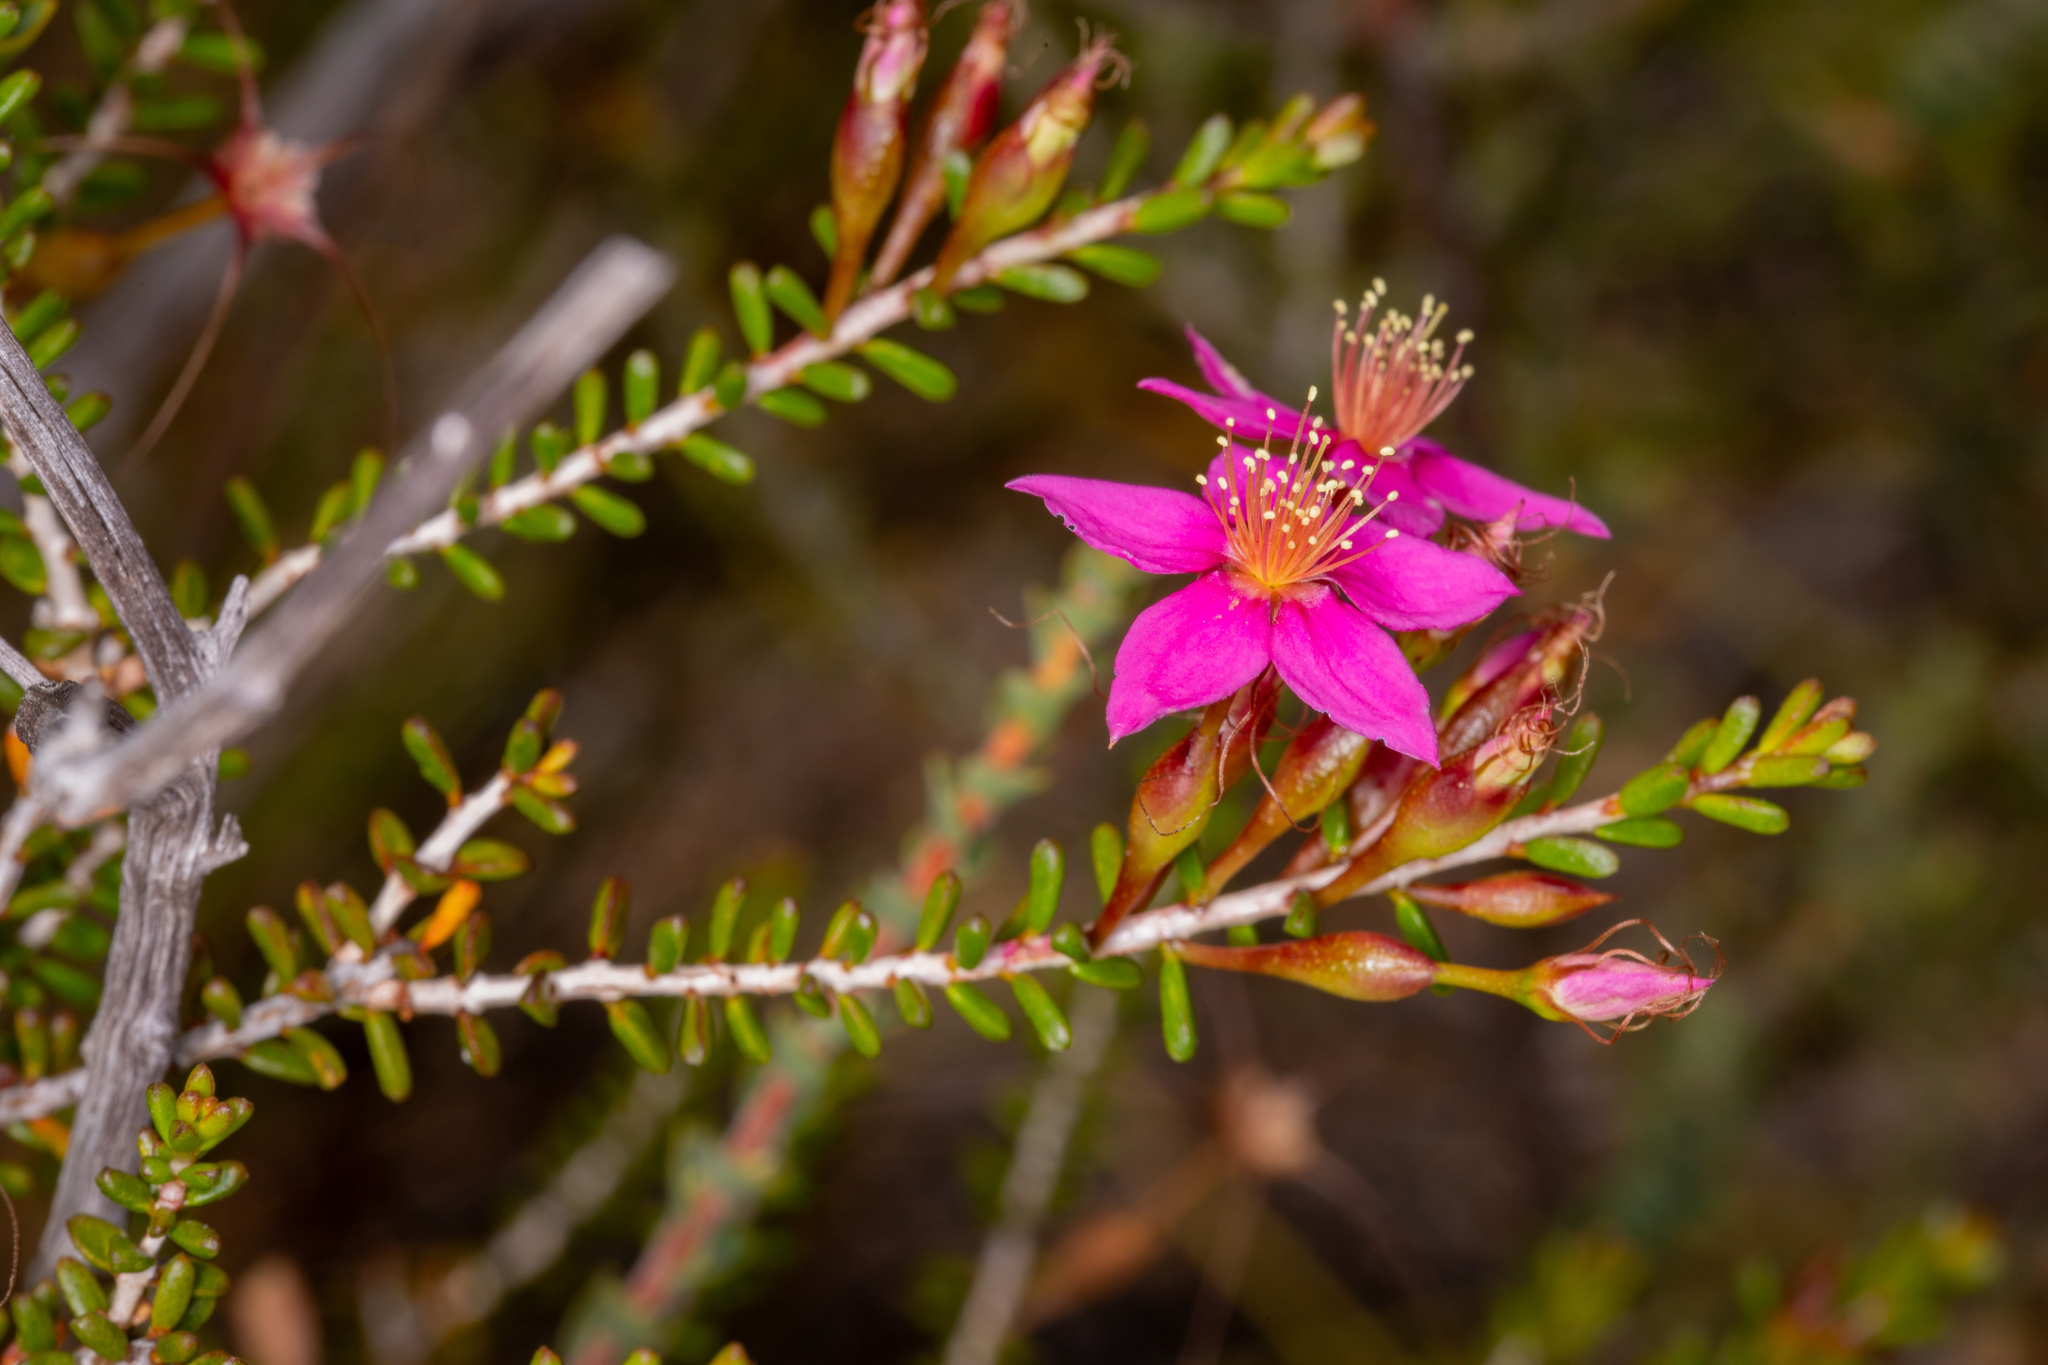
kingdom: Plantae
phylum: Tracheophyta
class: Magnoliopsida
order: Myrtales
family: Myrtaceae
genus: Calytrix
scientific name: Calytrix oldfieldii
